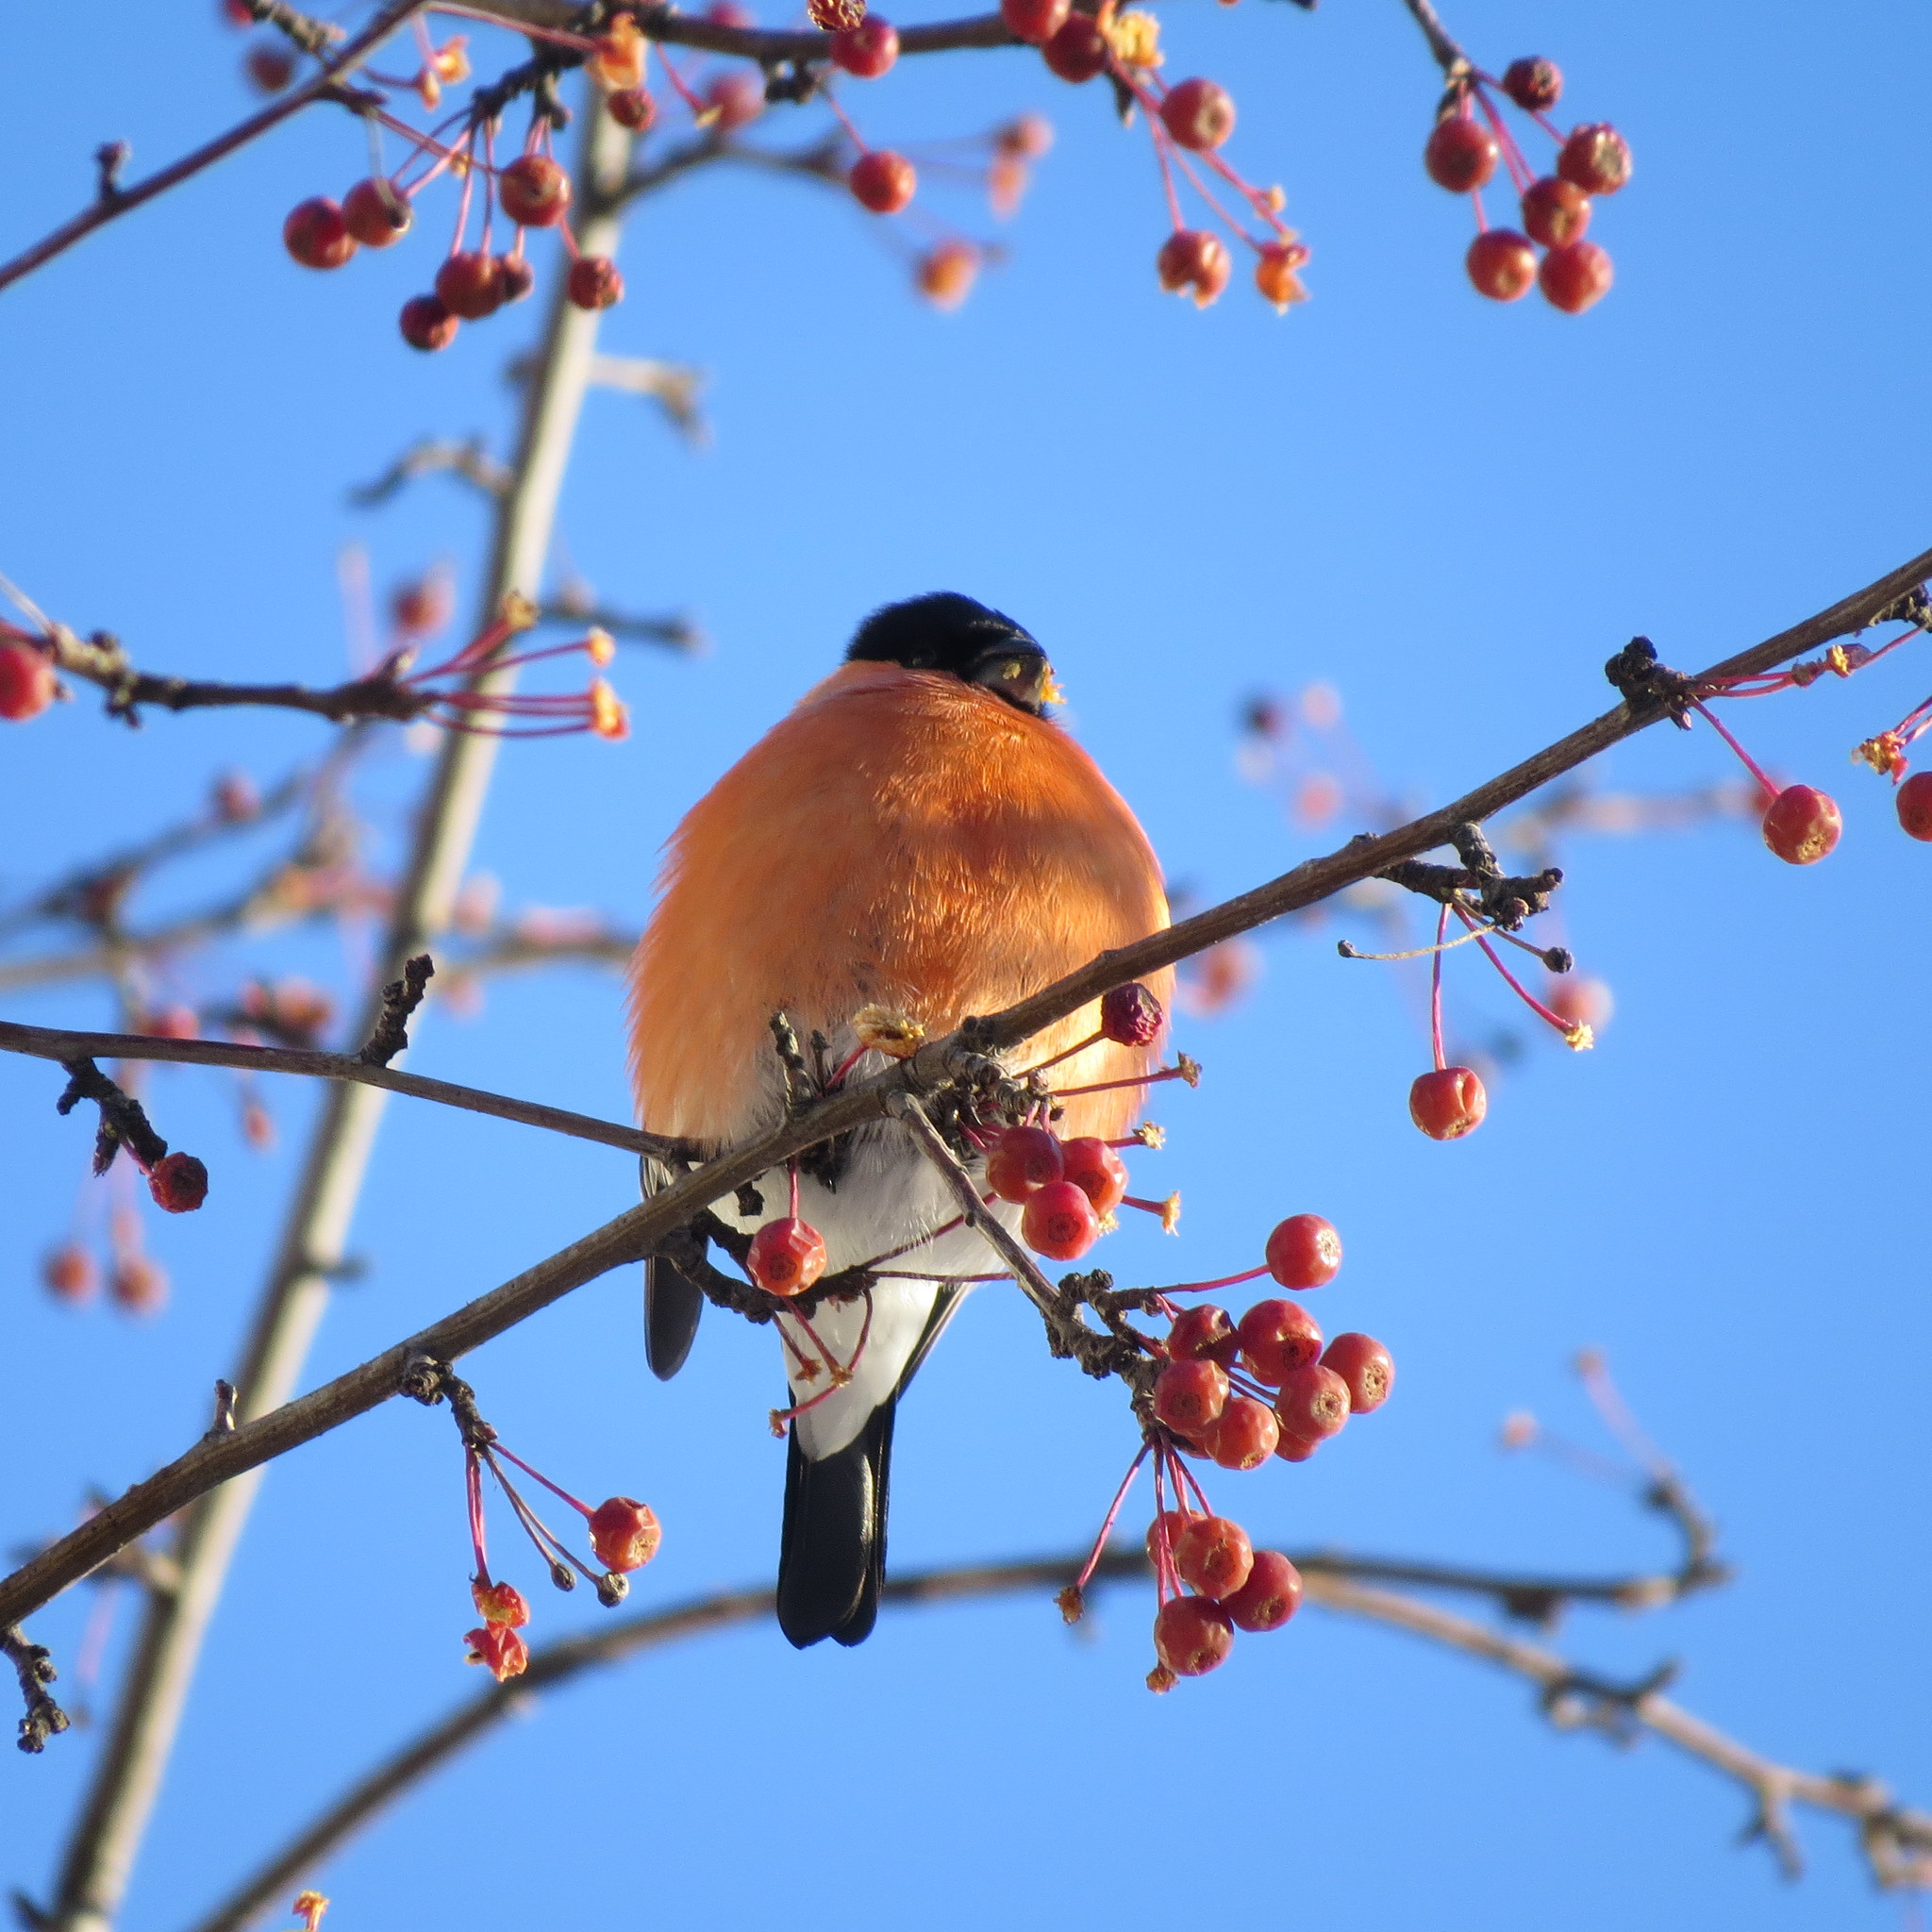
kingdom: Animalia
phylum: Chordata
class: Aves
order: Passeriformes
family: Fringillidae
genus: Pyrrhula
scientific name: Pyrrhula pyrrhula
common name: Eurasian bullfinch
